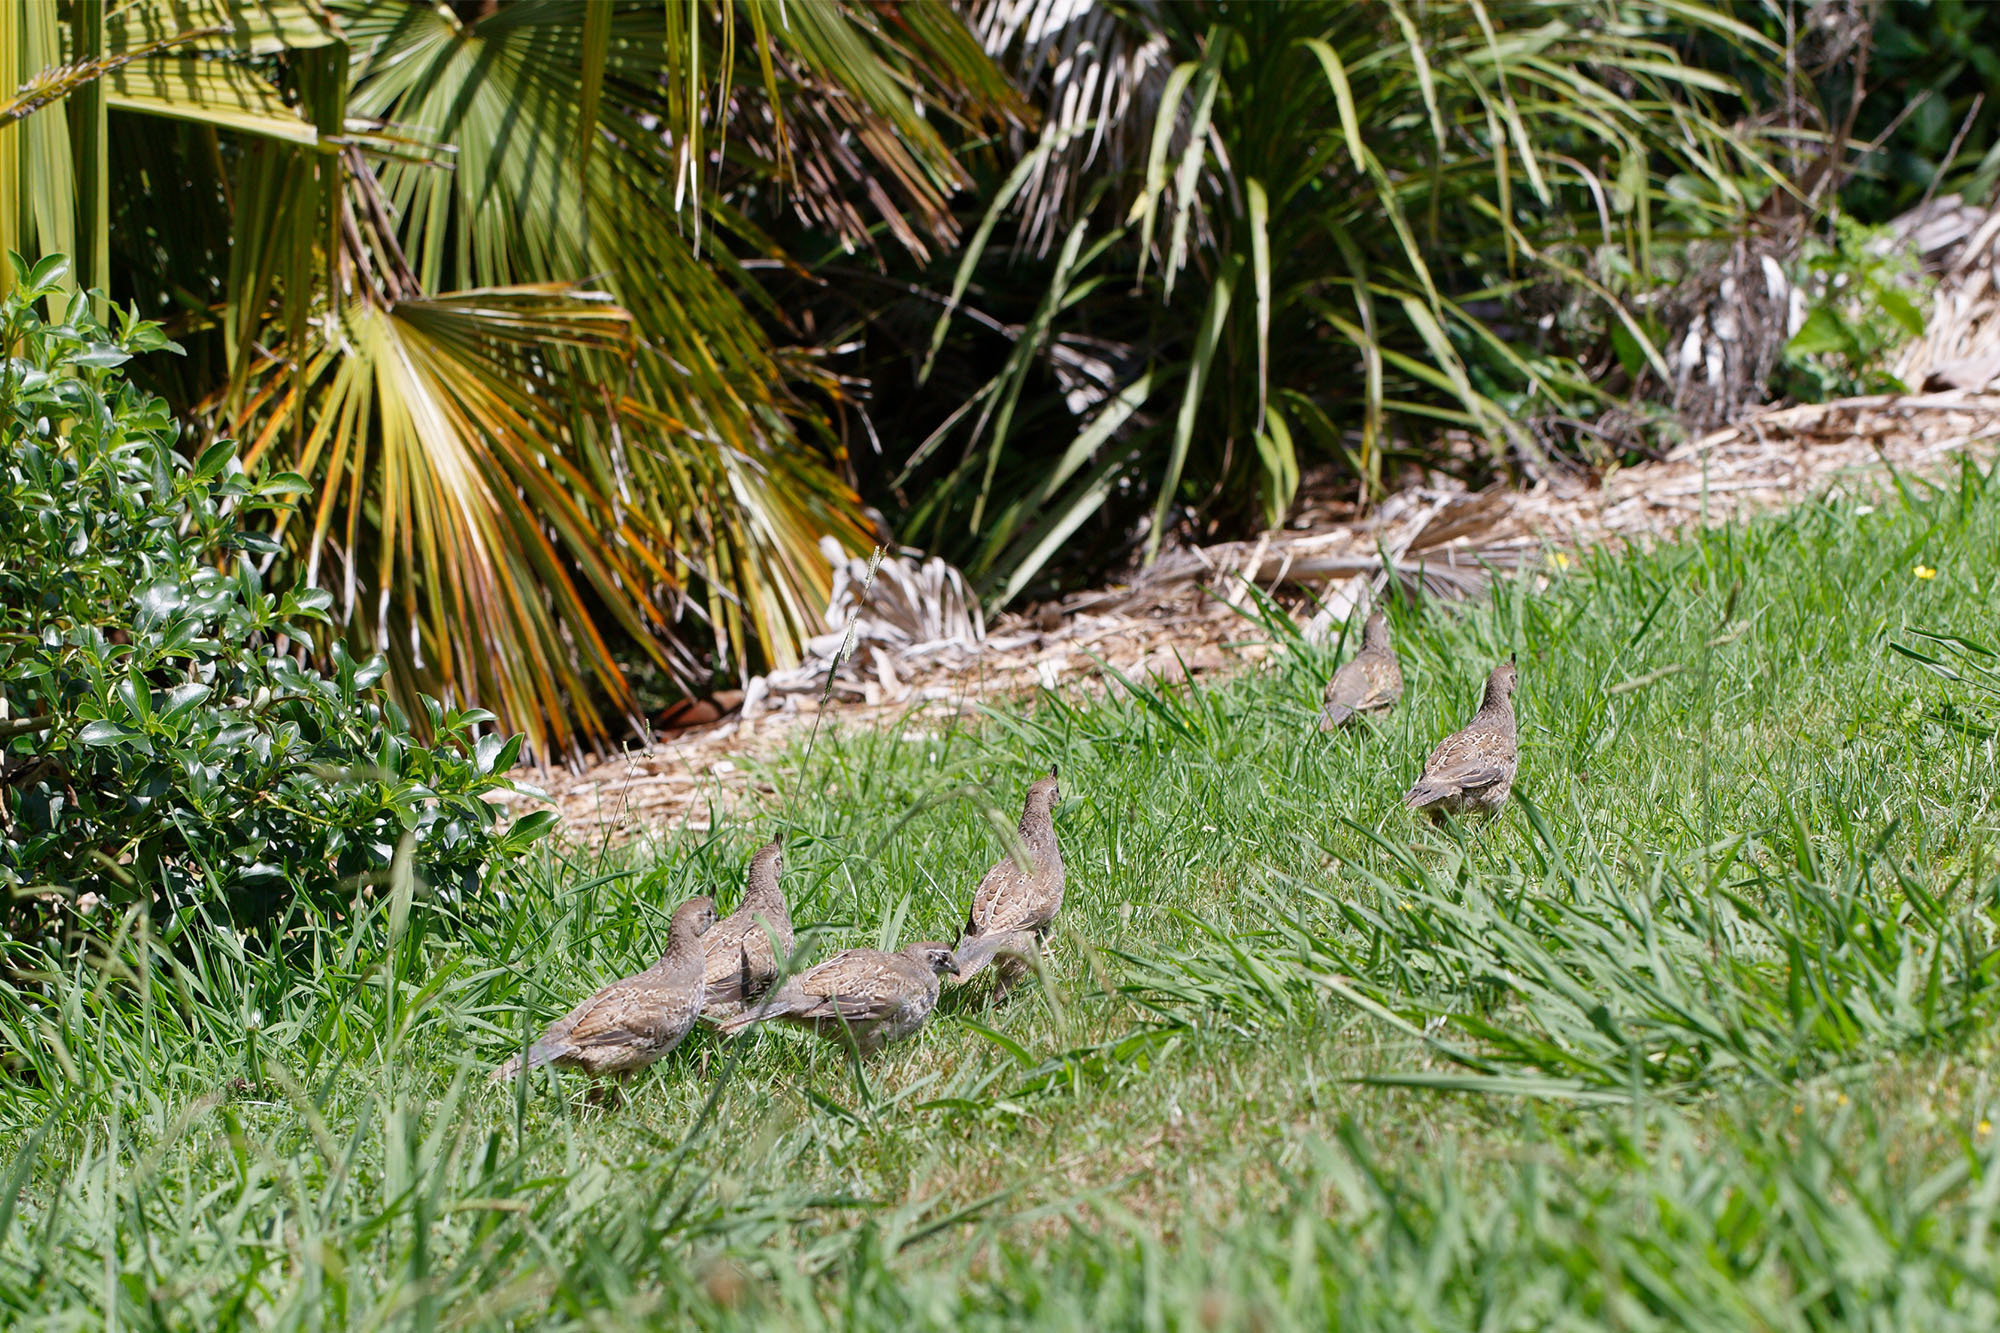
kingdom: Animalia
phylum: Chordata
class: Aves
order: Galliformes
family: Odontophoridae
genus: Callipepla
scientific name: Callipepla californica
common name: California quail
